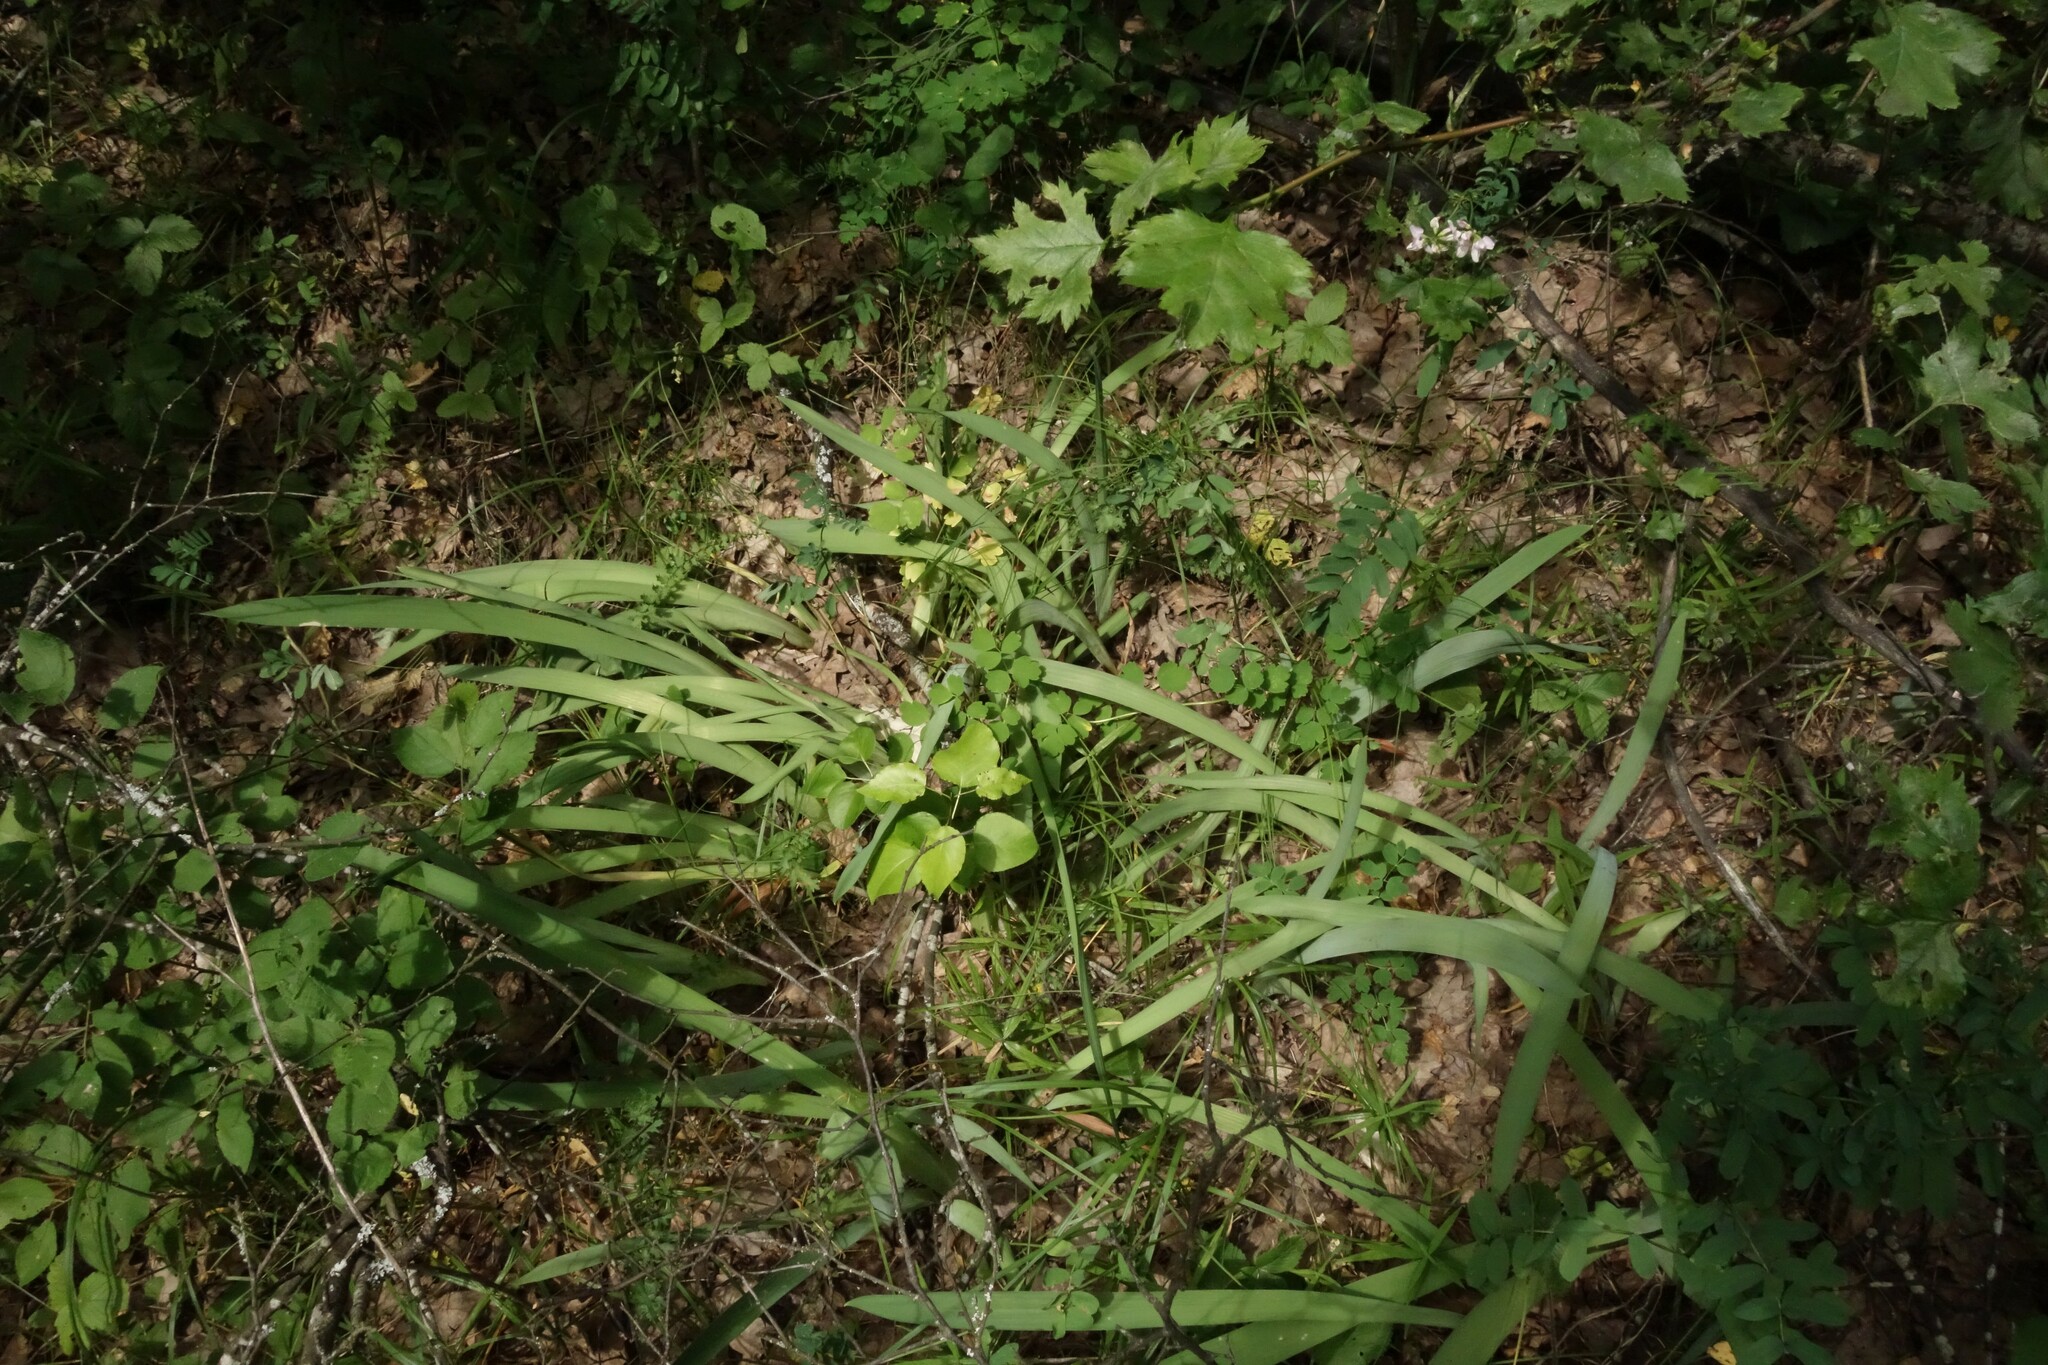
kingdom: Plantae
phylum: Tracheophyta
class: Liliopsida
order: Asparagales
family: Iridaceae
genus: Iris
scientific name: Iris aphylla
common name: Stool iris
